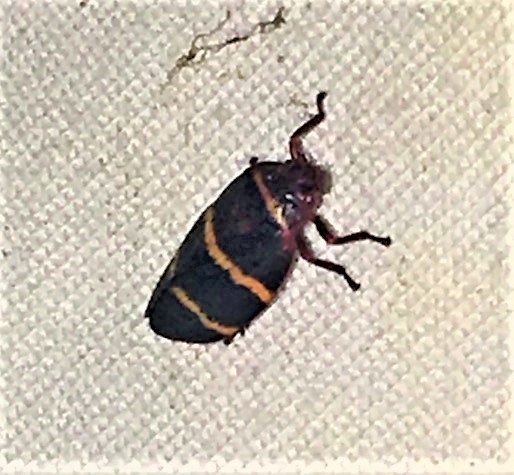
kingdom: Animalia
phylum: Arthropoda
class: Insecta
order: Hemiptera
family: Cercopidae
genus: Prosapia
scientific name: Prosapia bicincta
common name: Twolined spittlebug
